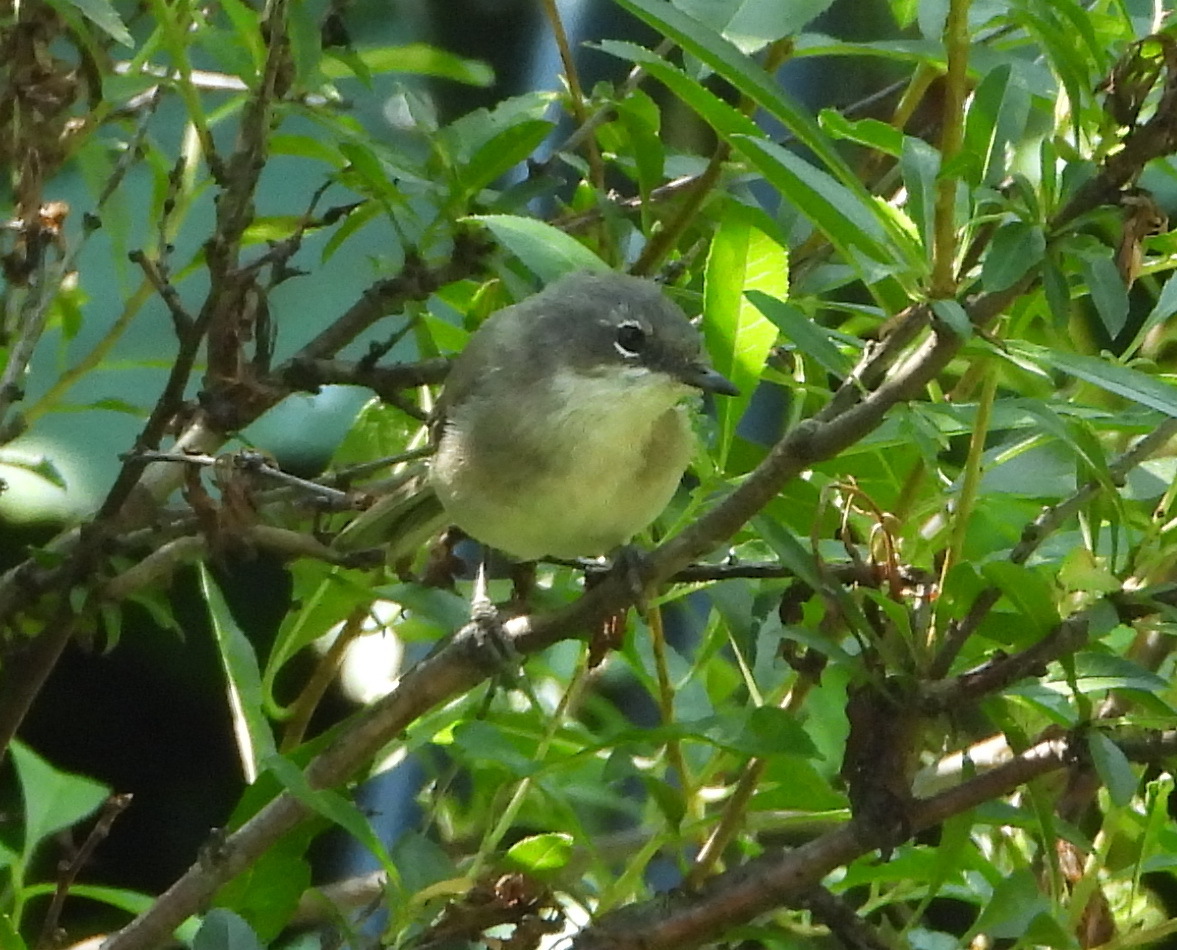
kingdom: Animalia
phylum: Chordata
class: Aves
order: Passeriformes
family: Sylviidae
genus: Sylvia
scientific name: Sylvia curruca
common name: Lesser whitethroat
